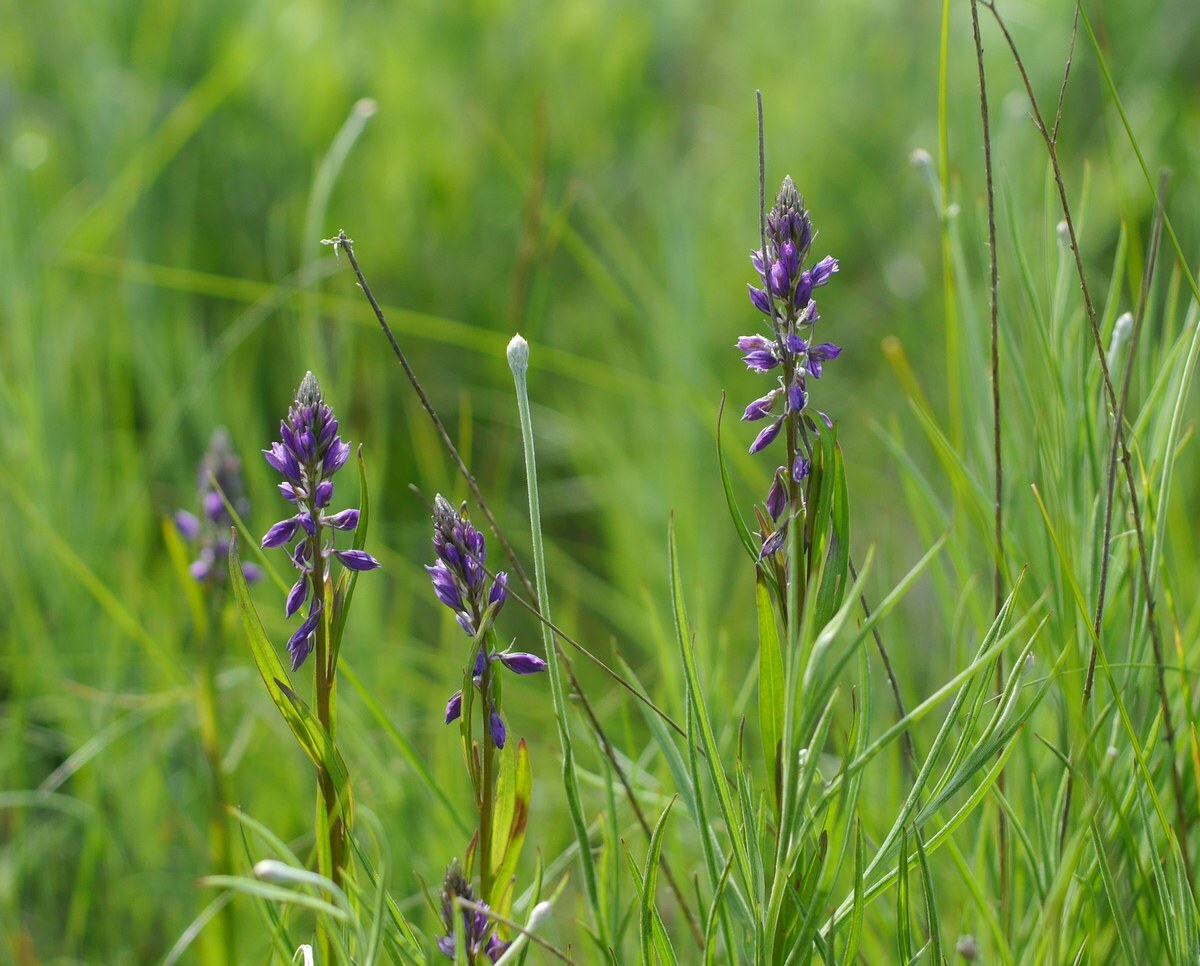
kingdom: Plantae
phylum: Tracheophyta
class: Magnoliopsida
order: Fabales
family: Polygalaceae
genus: Polygala
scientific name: Polygala comosa
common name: Tufted milkwort
